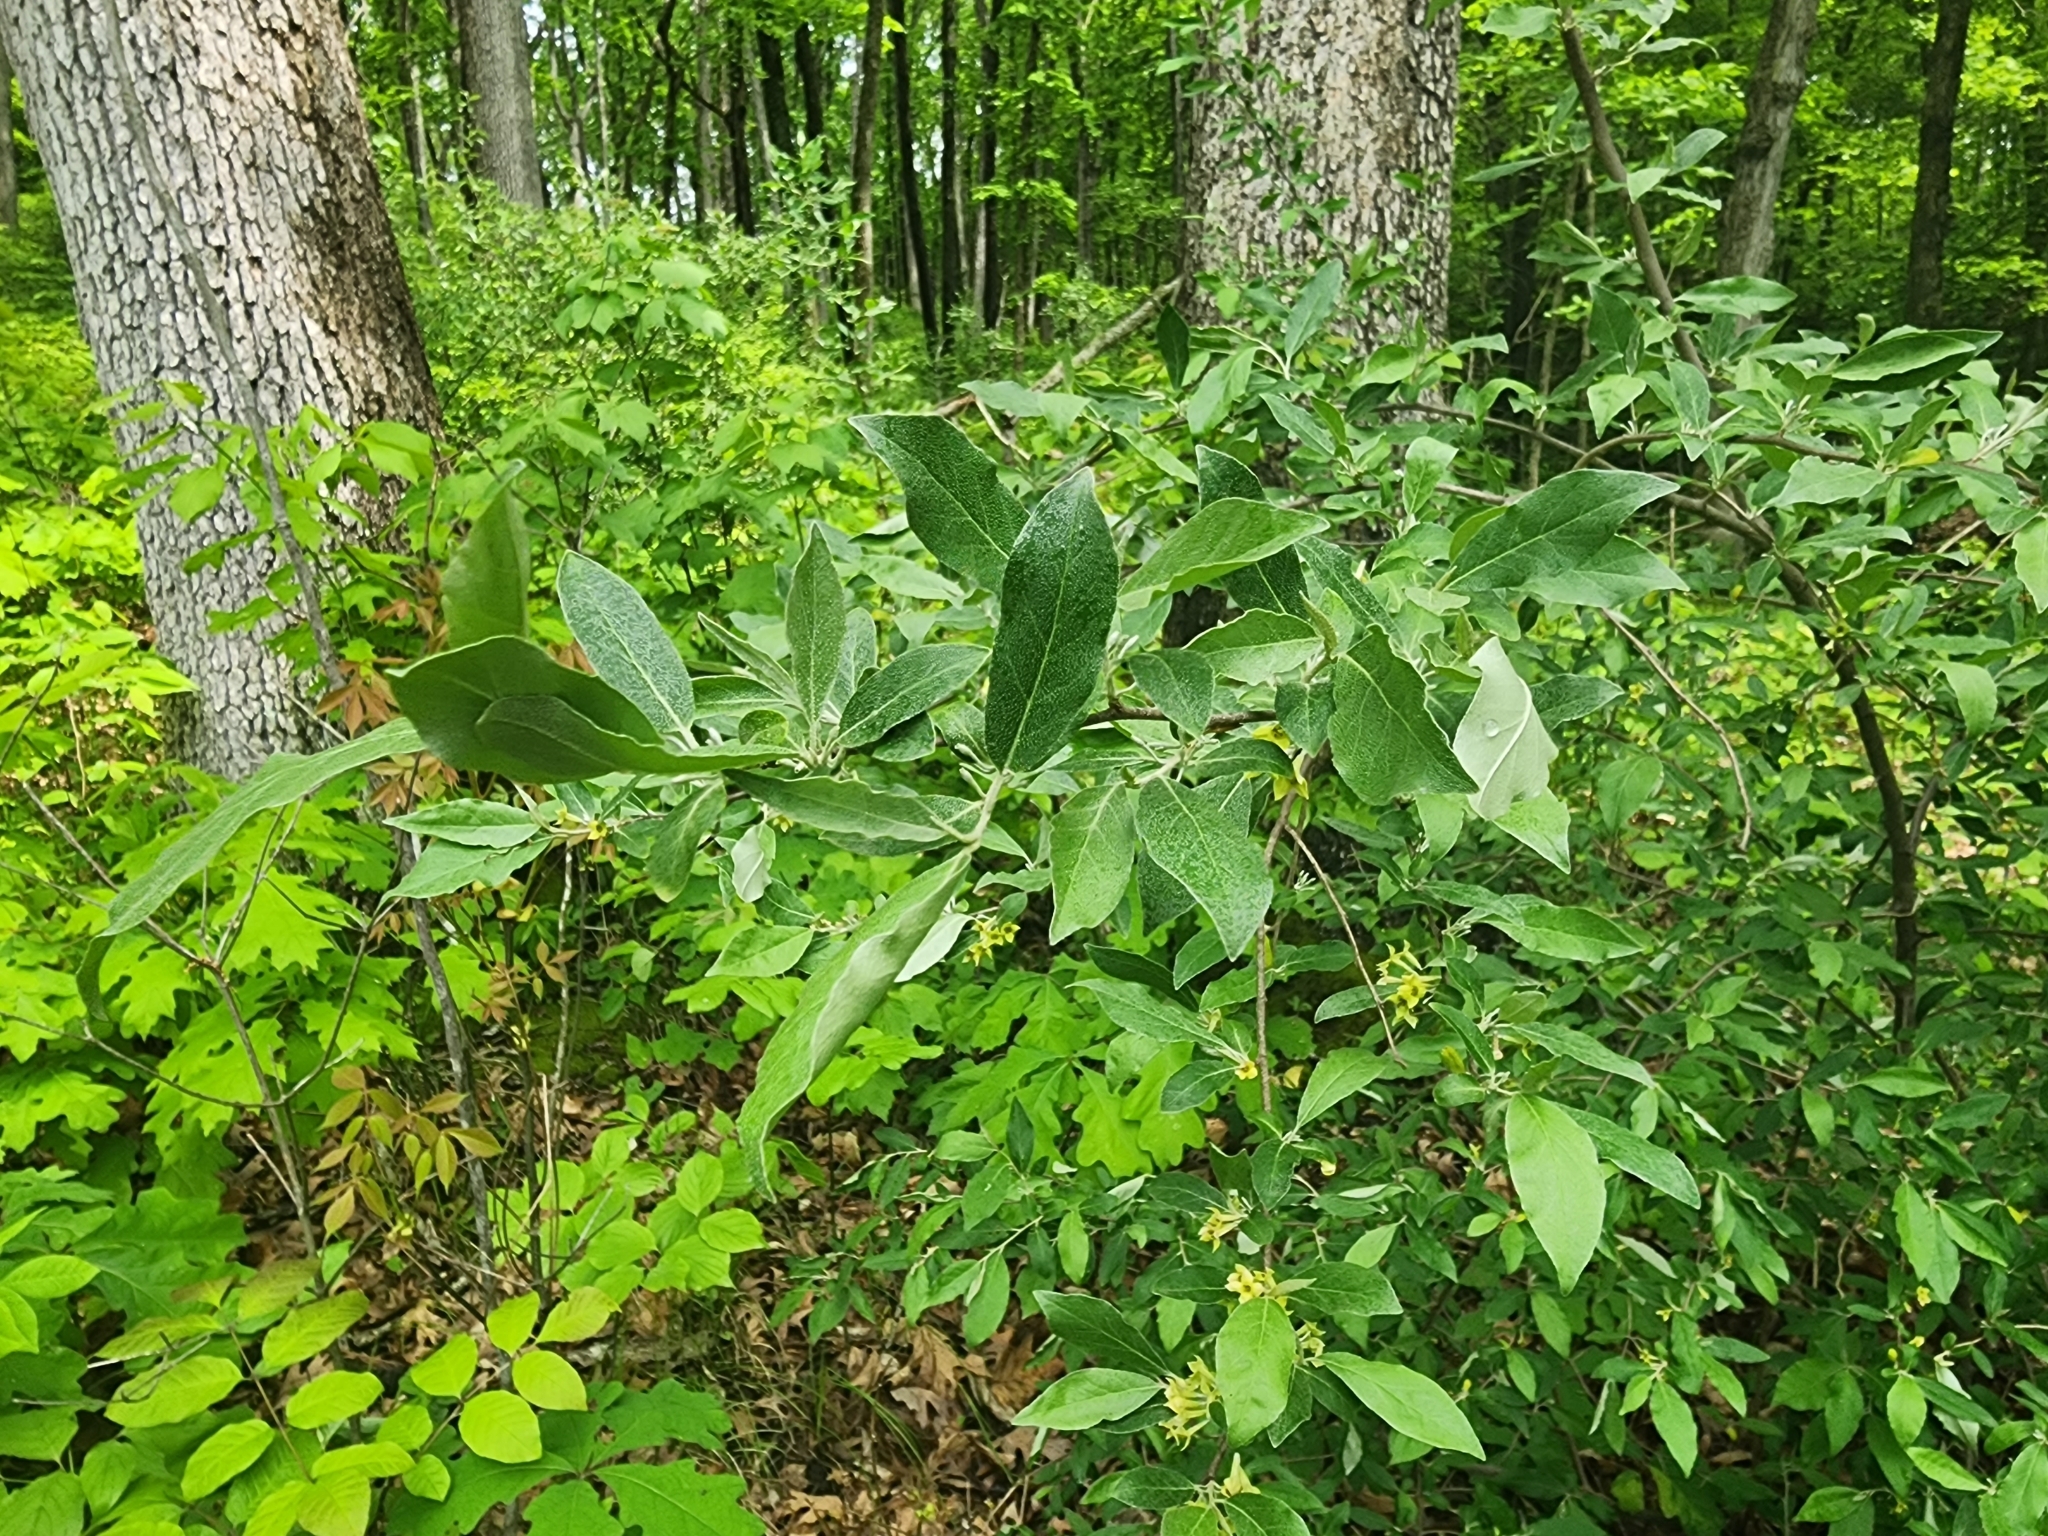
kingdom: Plantae
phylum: Tracheophyta
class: Magnoliopsida
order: Rosales
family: Elaeagnaceae
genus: Elaeagnus
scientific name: Elaeagnus umbellata
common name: Autumn olive
